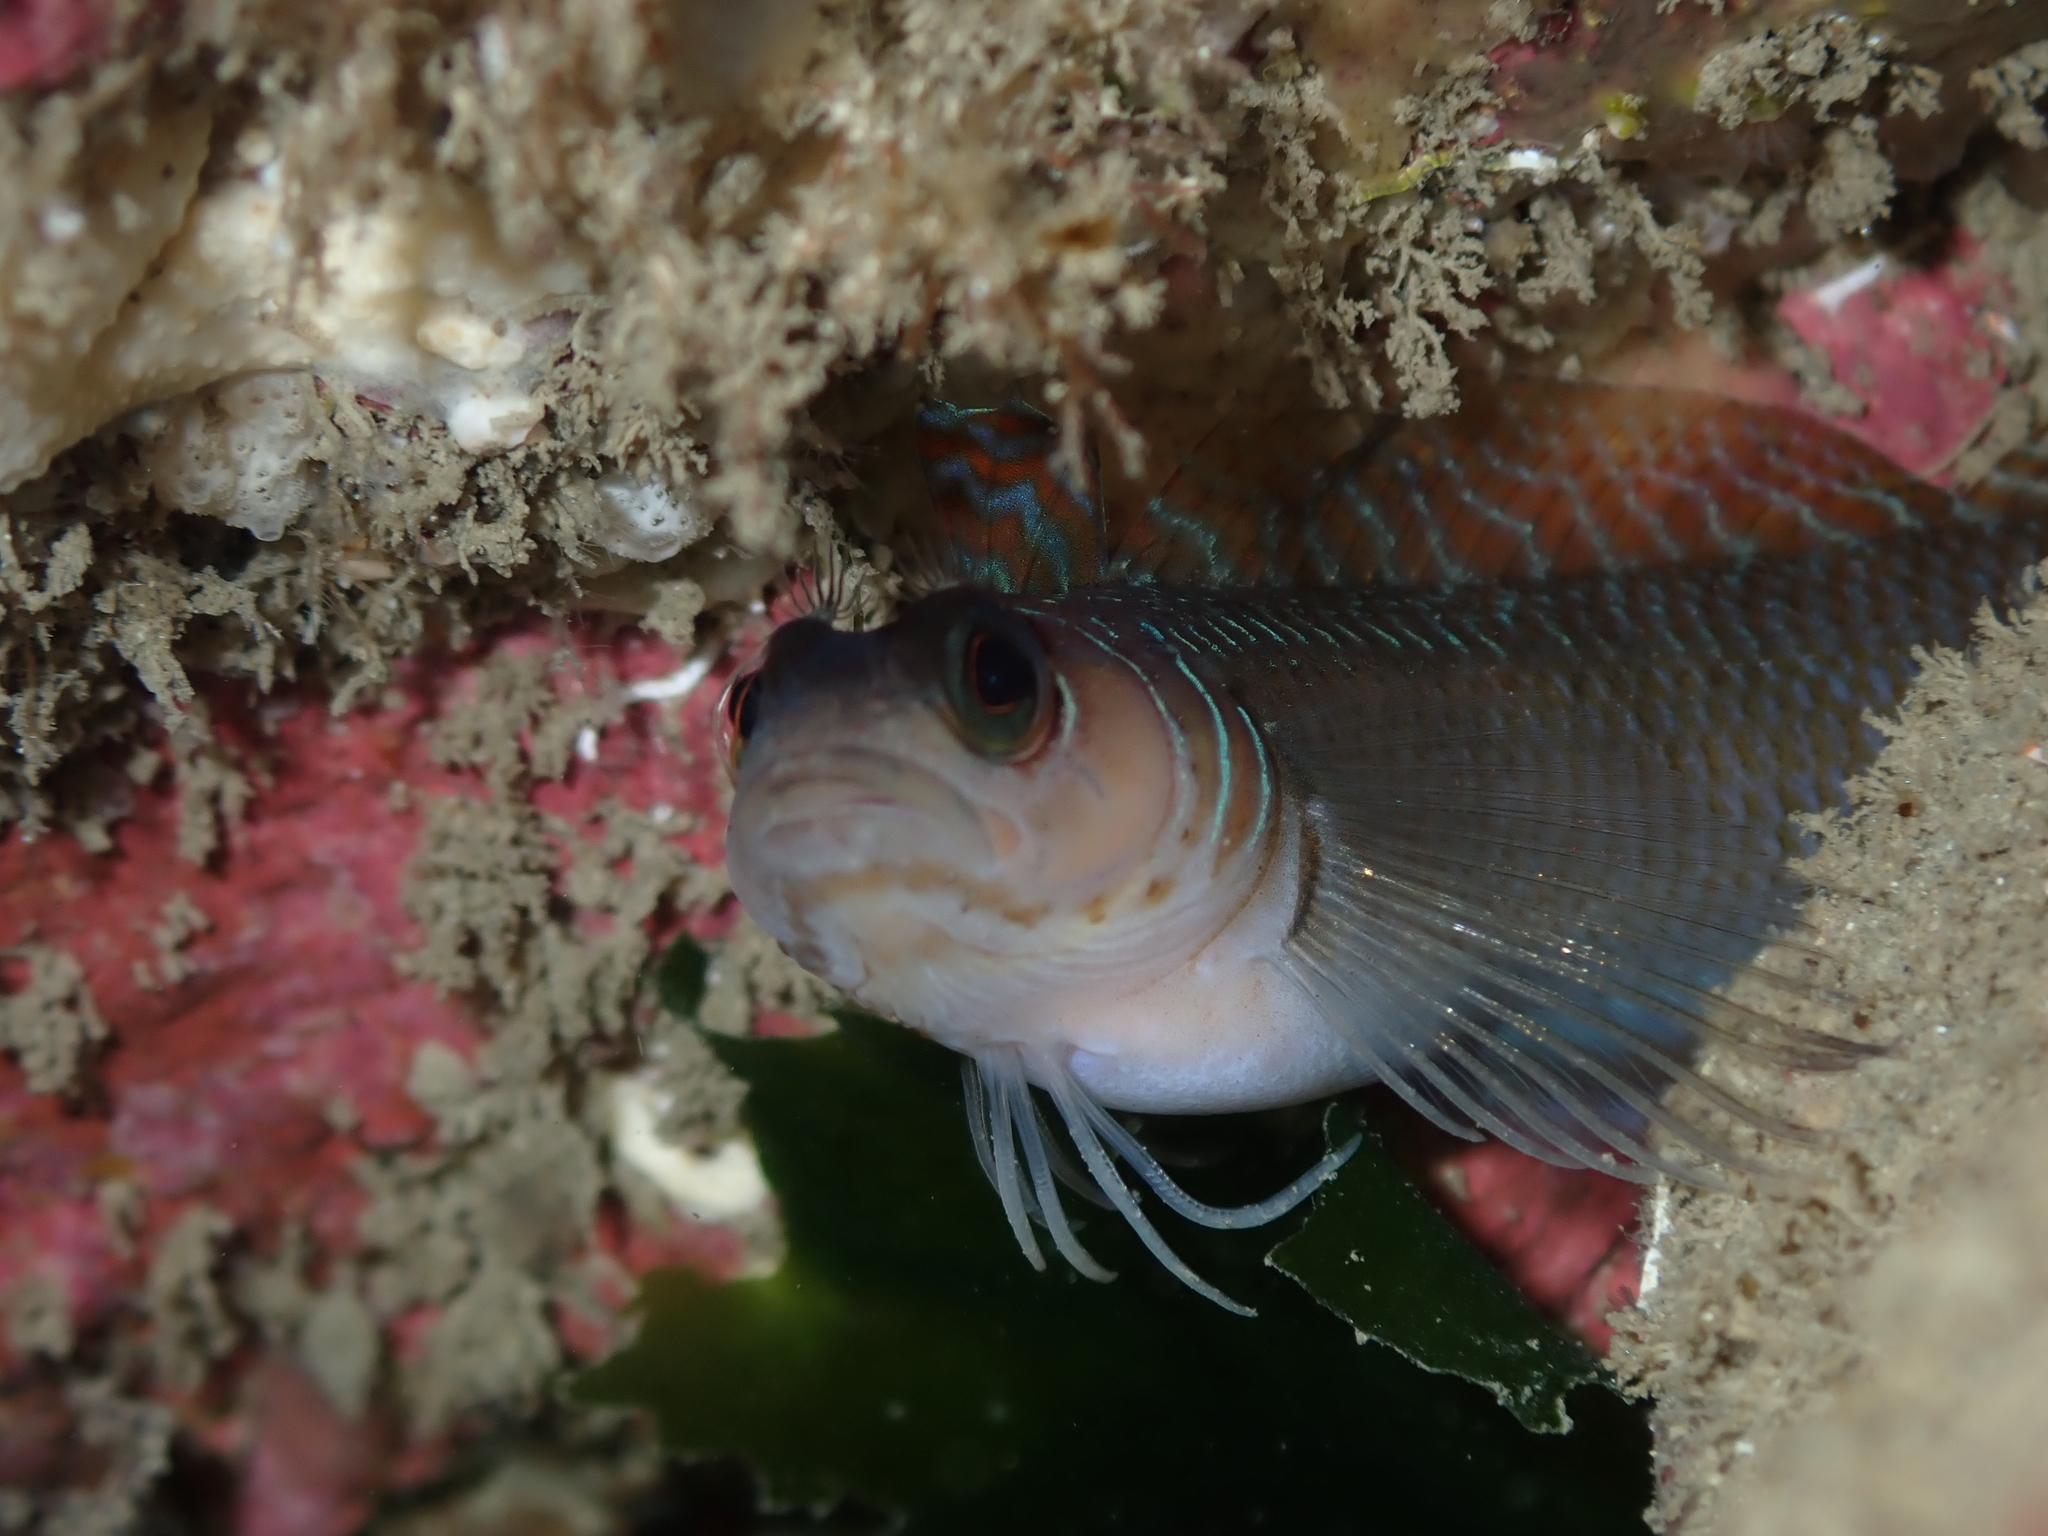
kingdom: Animalia
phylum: Chordata
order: Perciformes
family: Tripterygiidae
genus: Ruanoho
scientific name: Ruanoho whero
